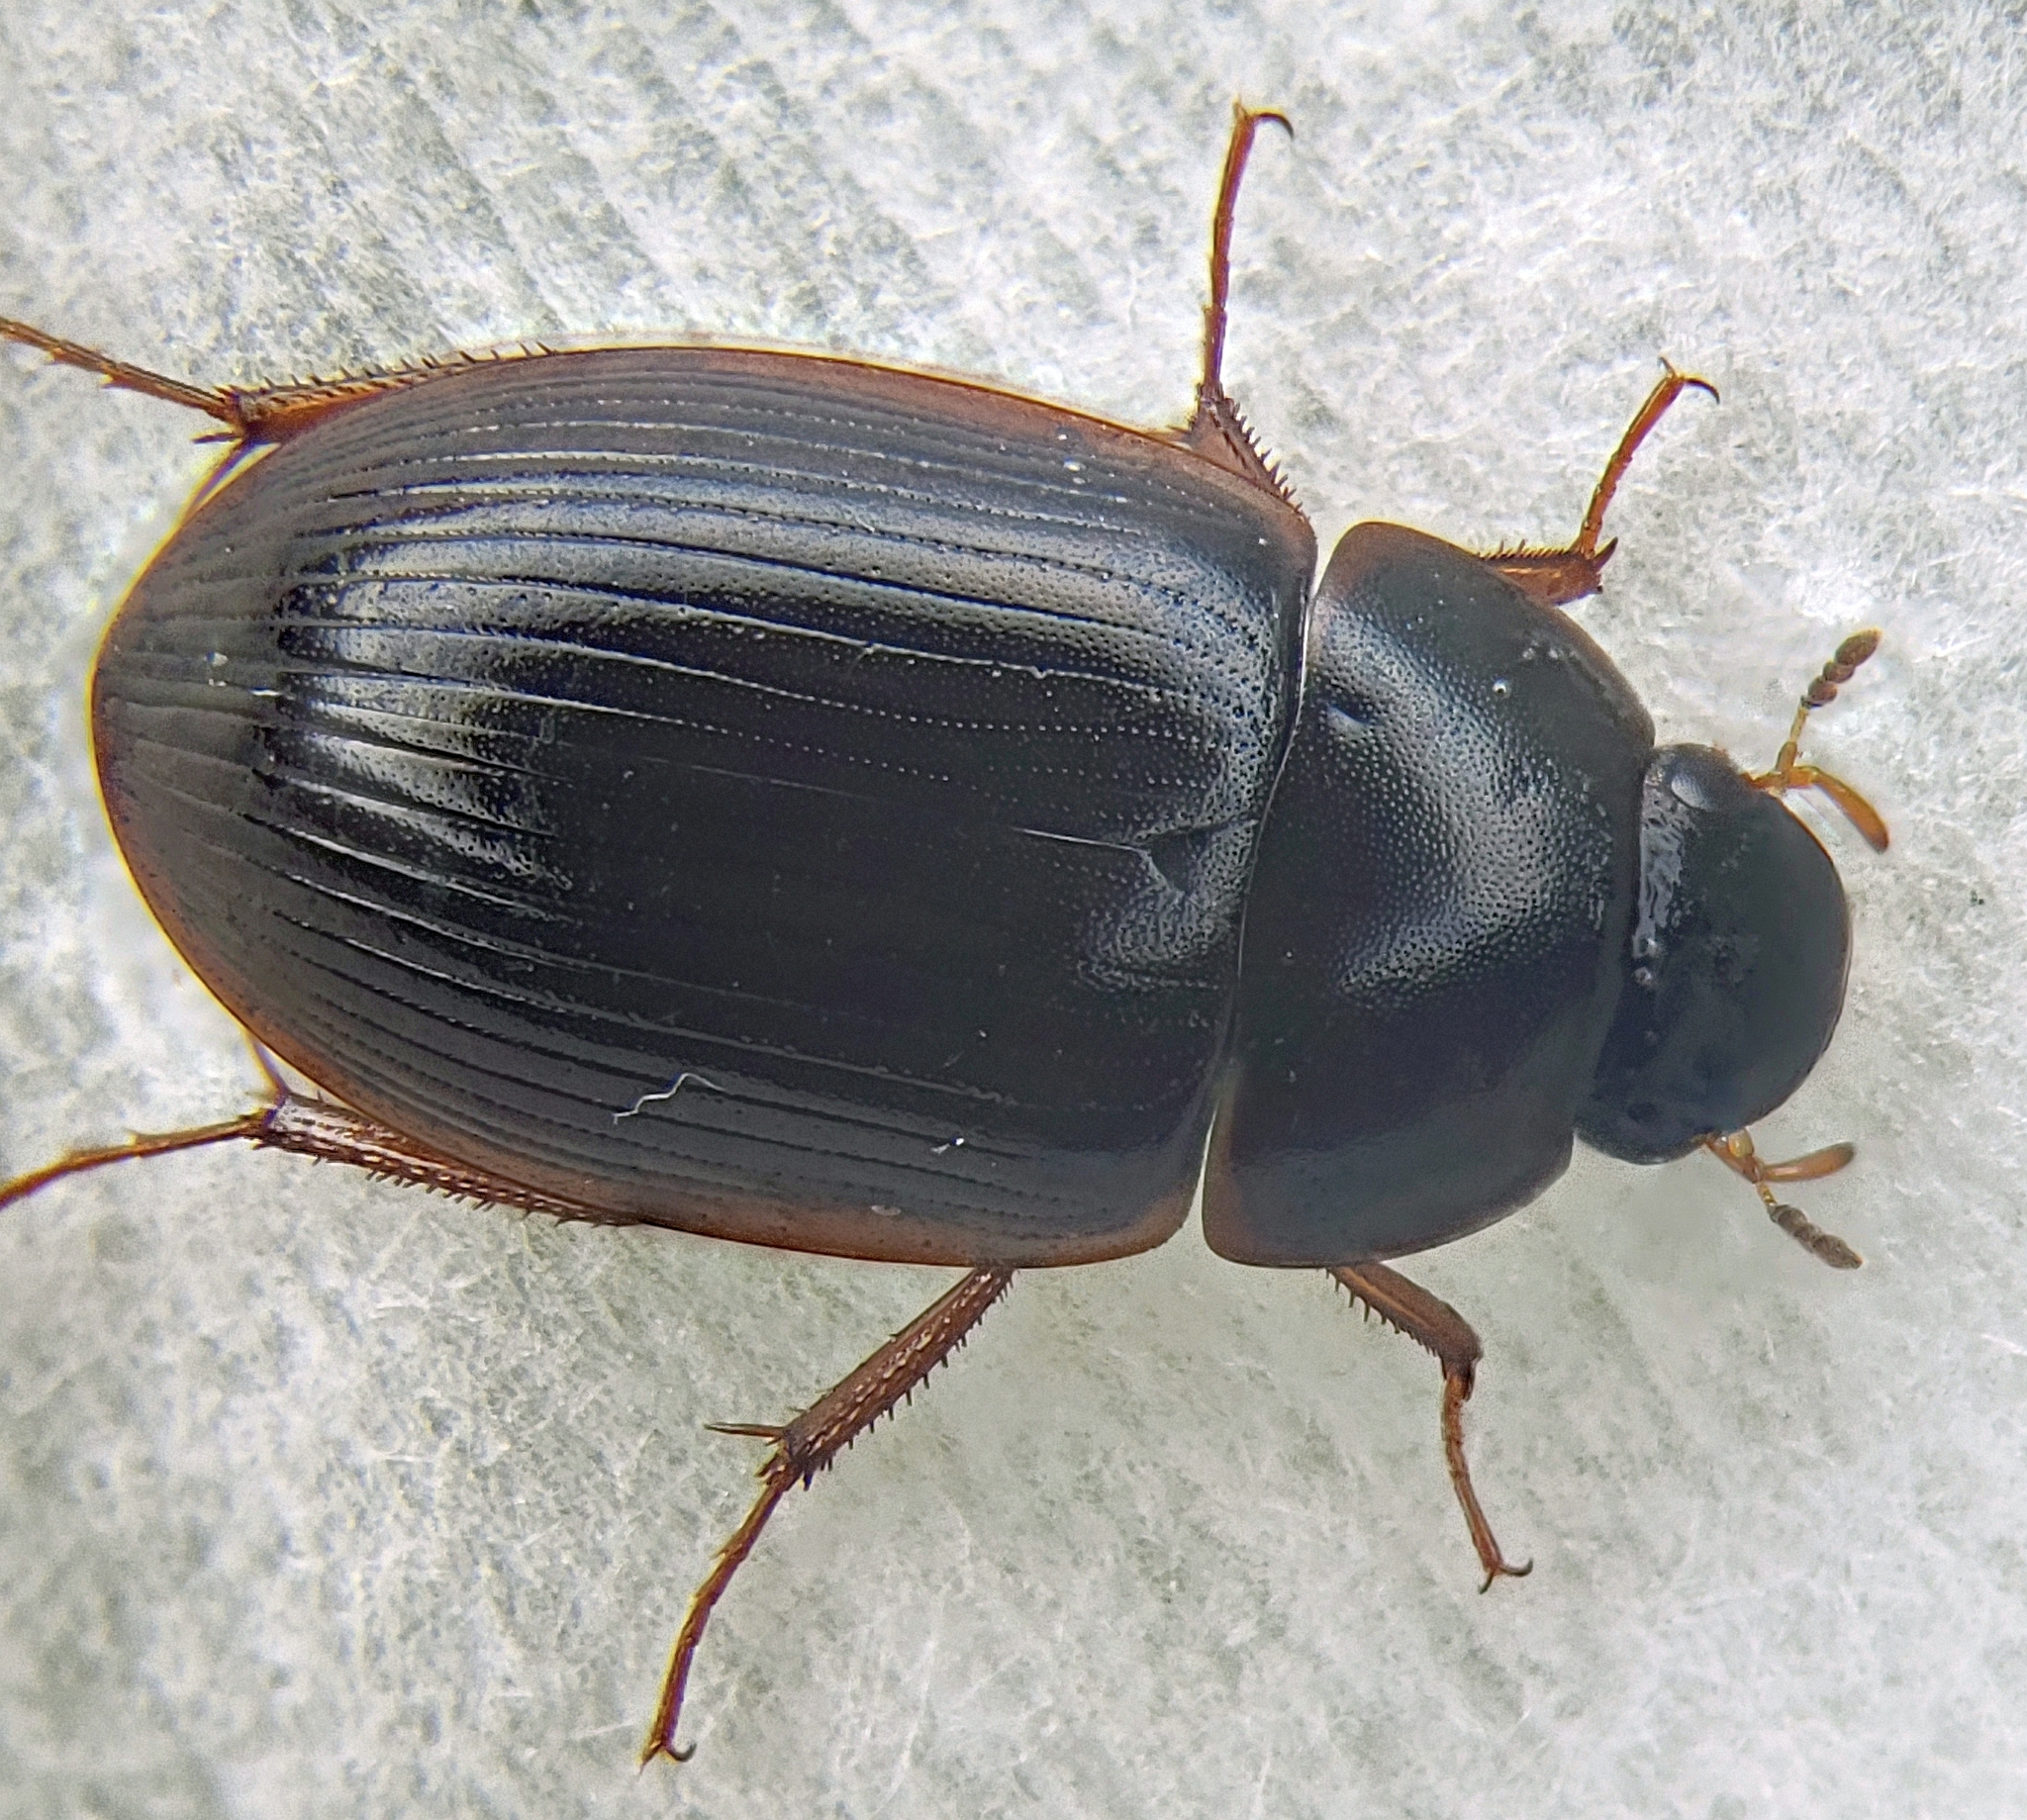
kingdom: Animalia
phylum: Arthropoda
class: Insecta
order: Coleoptera
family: Hydrophilidae
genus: Hydrobius
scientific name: Hydrobius fuscipes
